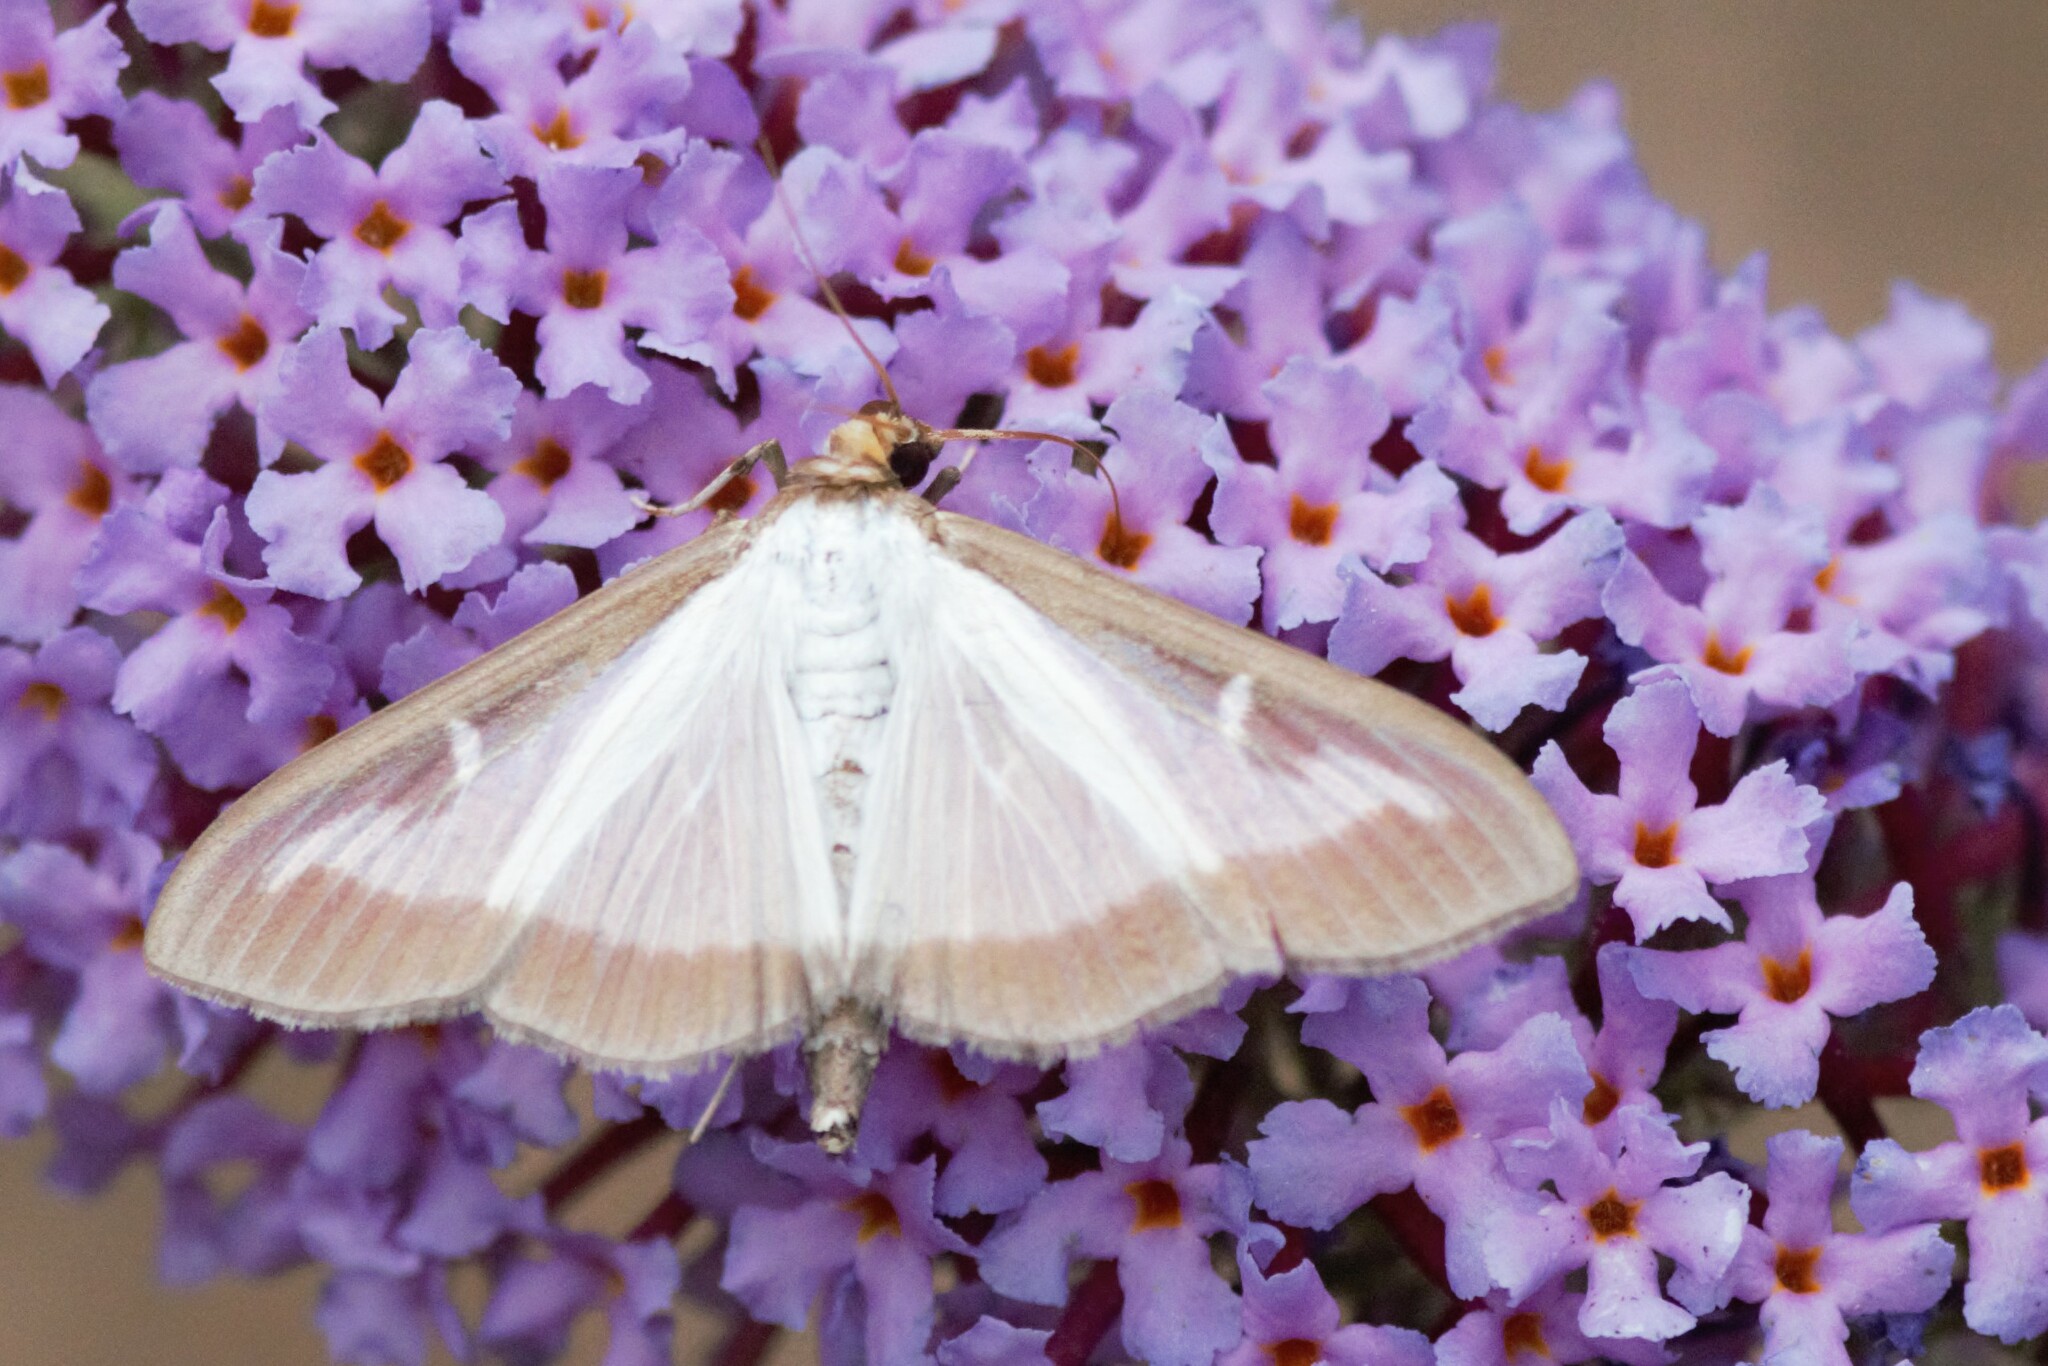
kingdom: Animalia
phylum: Arthropoda
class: Insecta
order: Lepidoptera
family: Crambidae
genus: Cydalima
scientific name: Cydalima perspectalis
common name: Box tree moth
